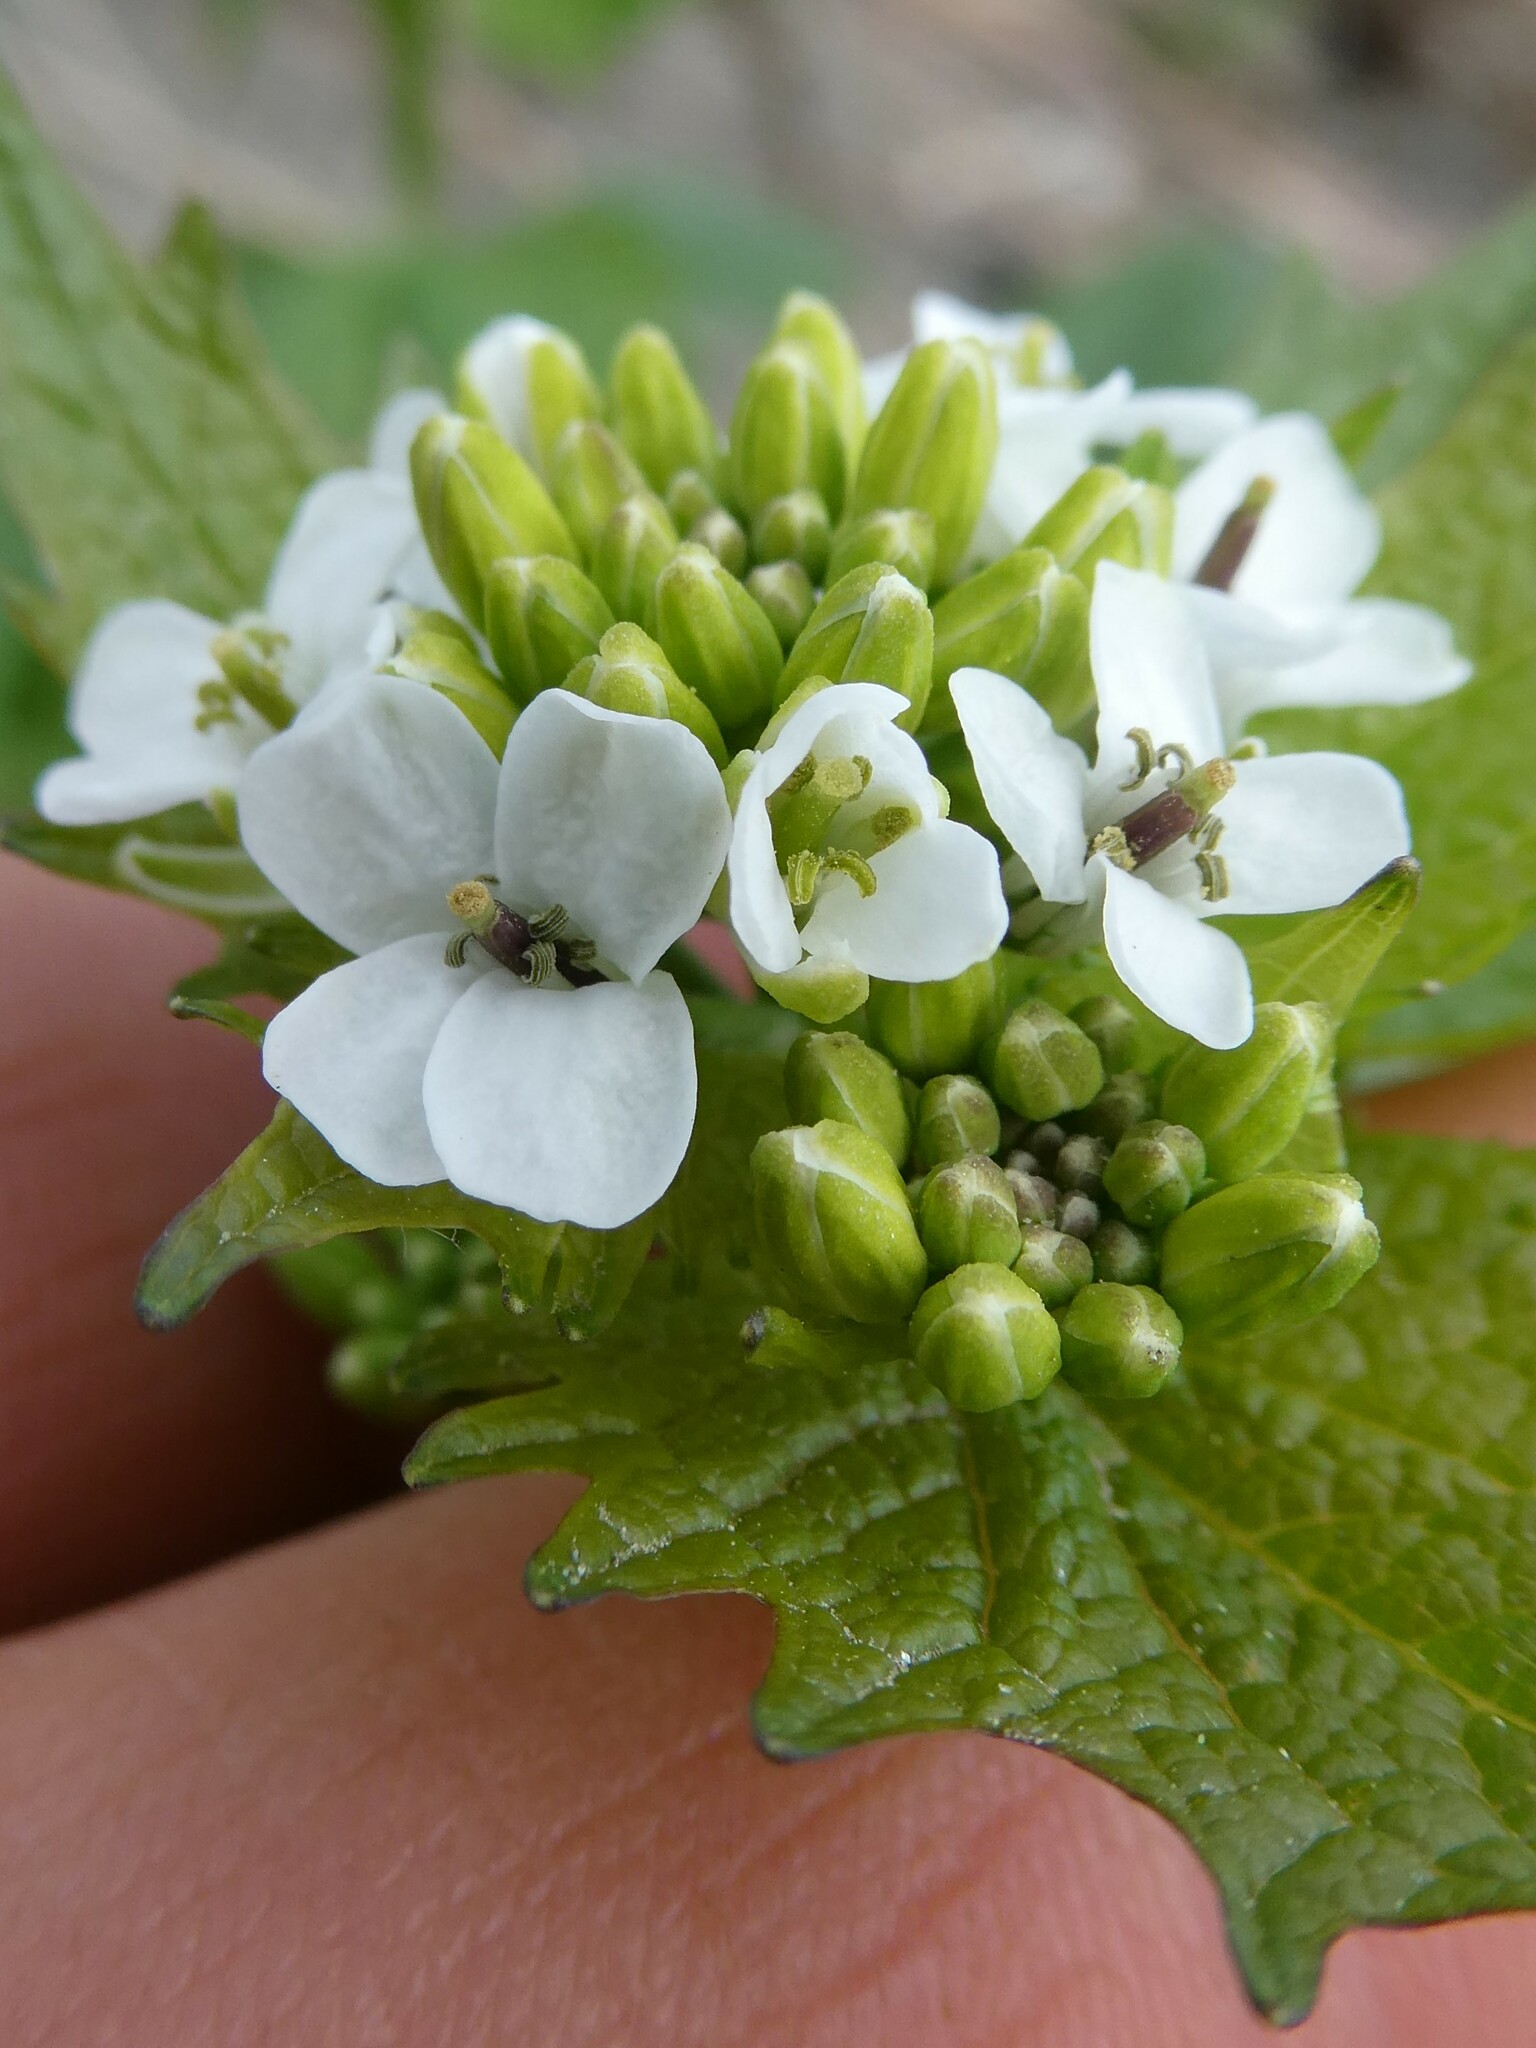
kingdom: Plantae
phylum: Tracheophyta
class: Magnoliopsida
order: Brassicales
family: Brassicaceae
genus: Alliaria
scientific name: Alliaria petiolata
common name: Garlic mustard
